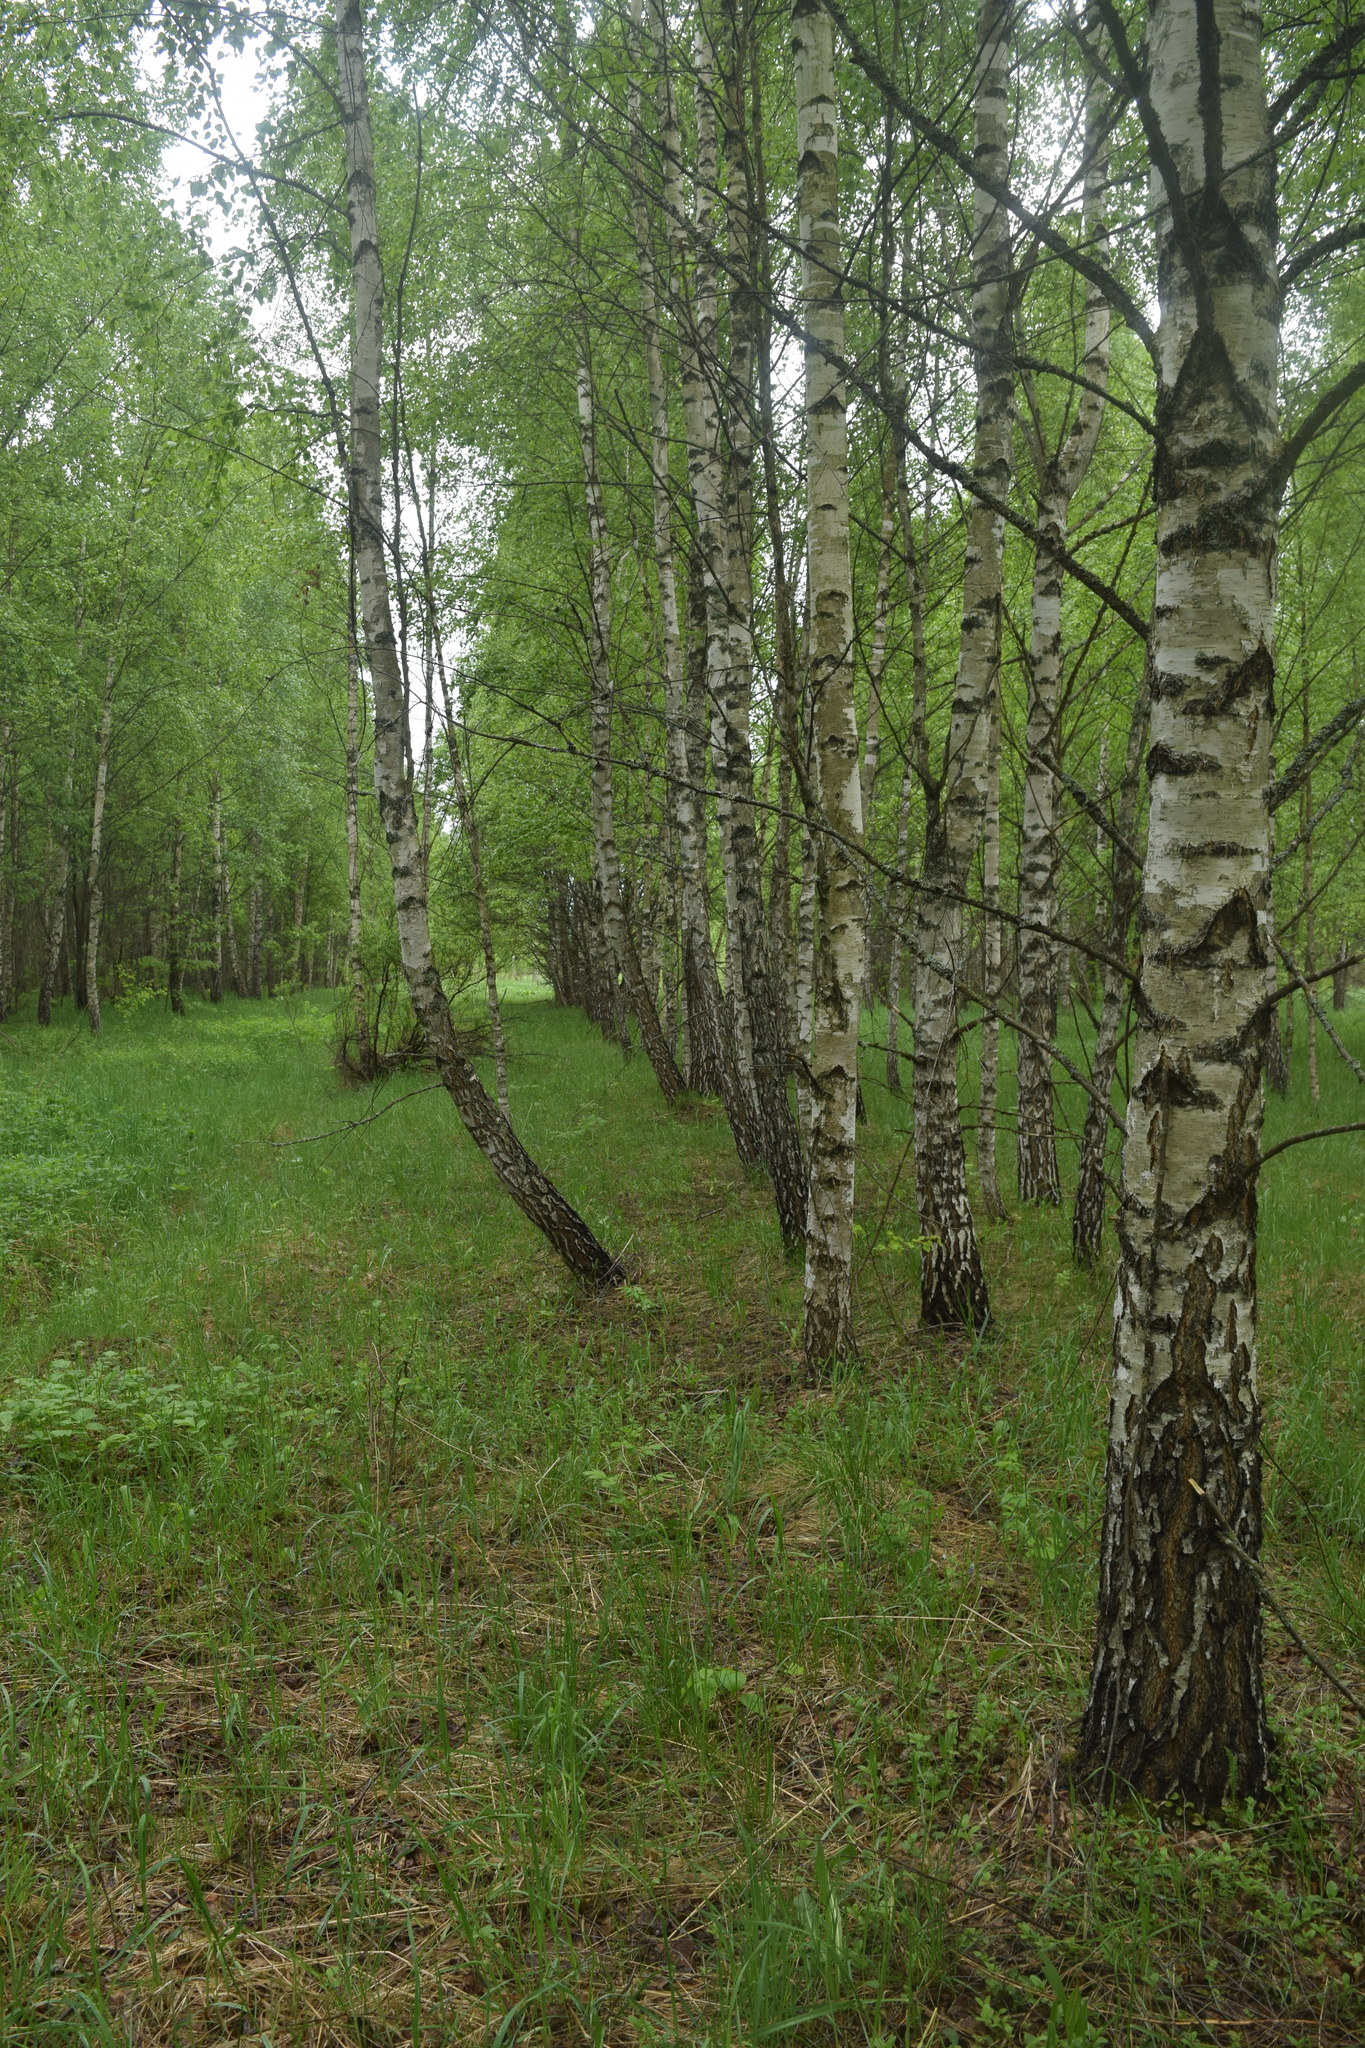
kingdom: Plantae
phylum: Tracheophyta
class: Magnoliopsida
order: Fagales
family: Betulaceae
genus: Betula
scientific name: Betula pendula
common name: Silver birch
